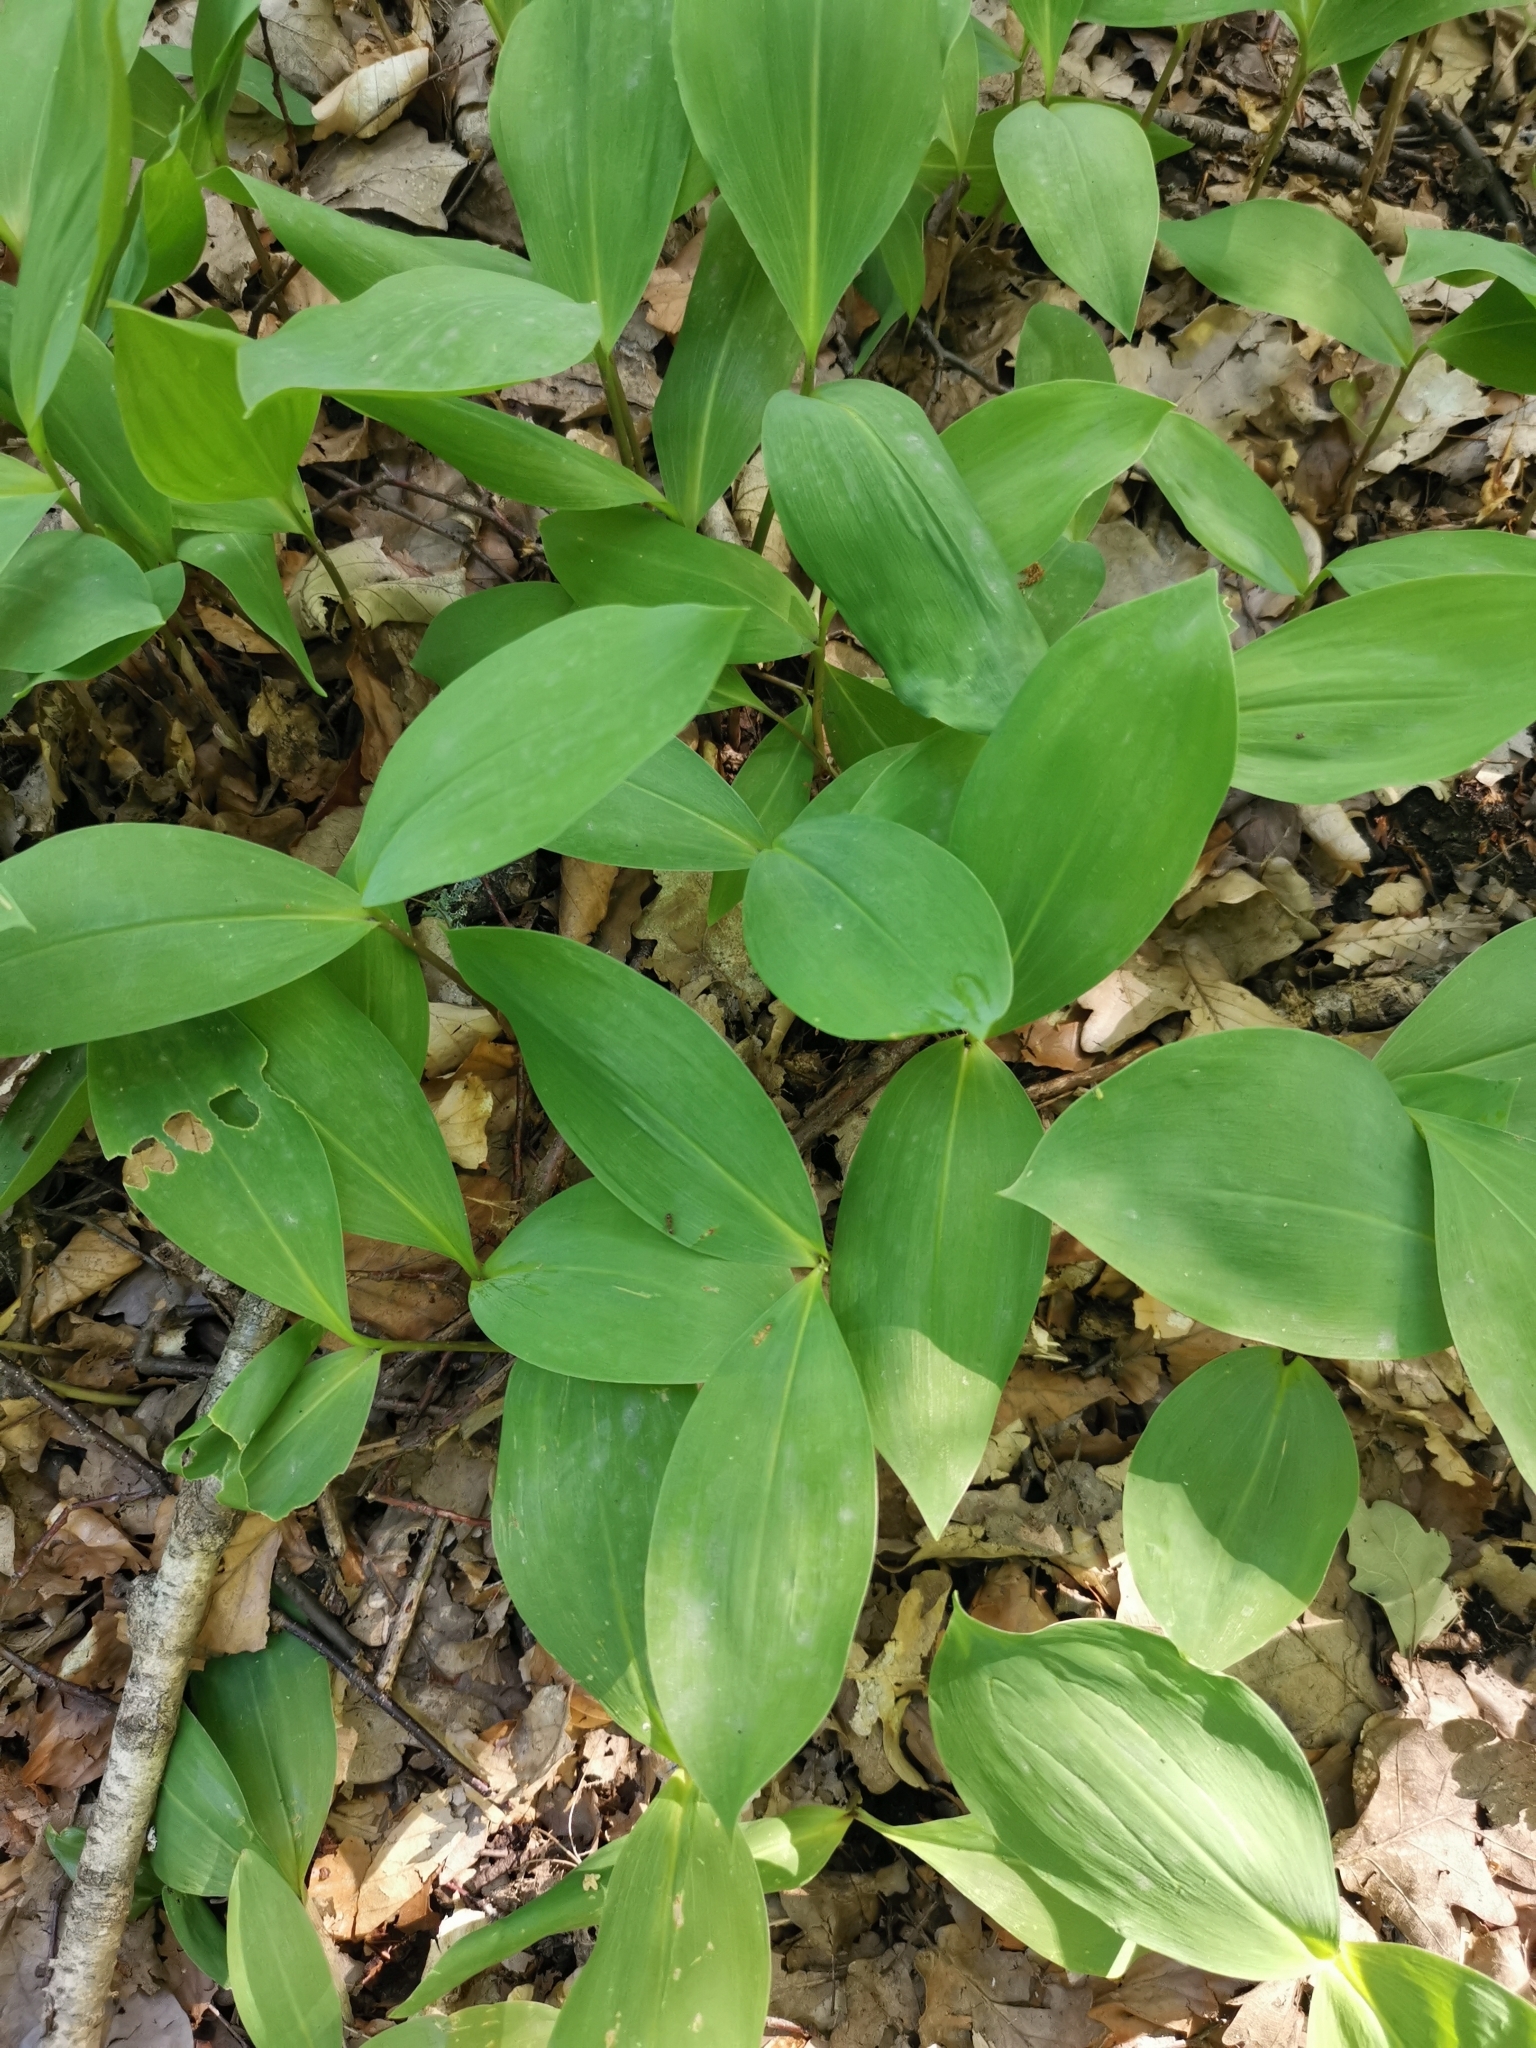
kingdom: Plantae
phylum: Tracheophyta
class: Liliopsida
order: Asparagales
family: Asparagaceae
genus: Convallaria
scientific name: Convallaria majalis
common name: Lily-of-the-valley
